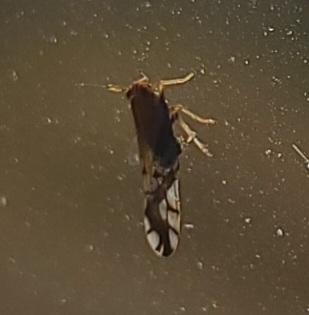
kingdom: Animalia
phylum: Arthropoda
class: Insecta
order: Hemiptera
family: Delphacidae
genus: Liburniella
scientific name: Liburniella ornata
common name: Ornate planthopper
